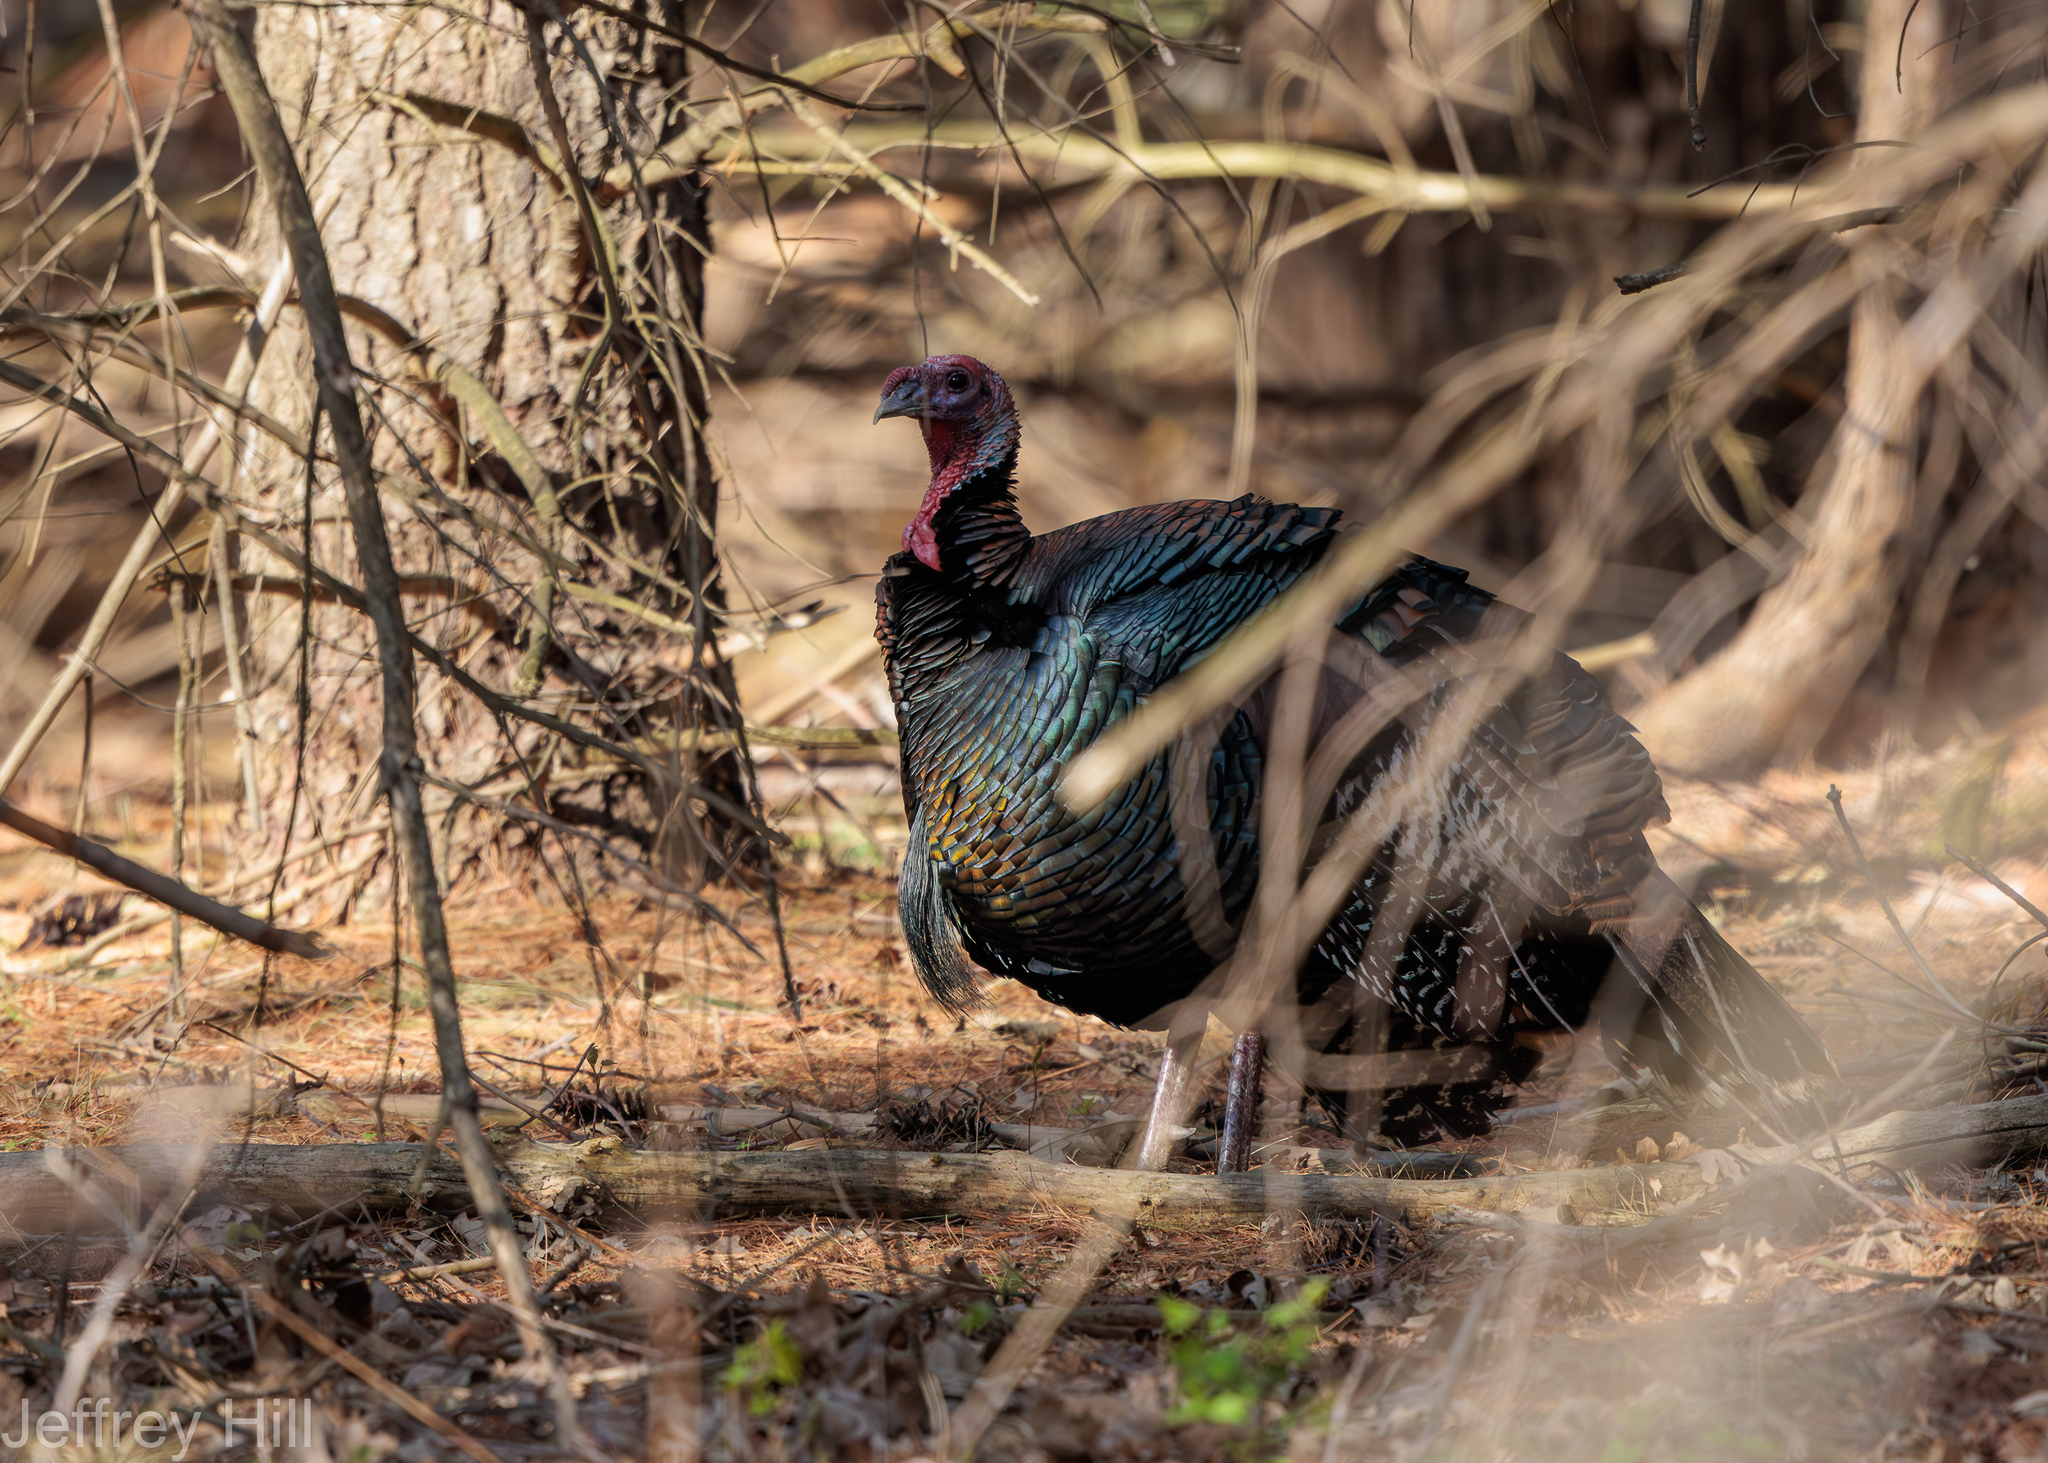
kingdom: Animalia
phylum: Chordata
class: Aves
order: Galliformes
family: Phasianidae
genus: Meleagris
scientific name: Meleagris gallopavo
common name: Wild turkey
